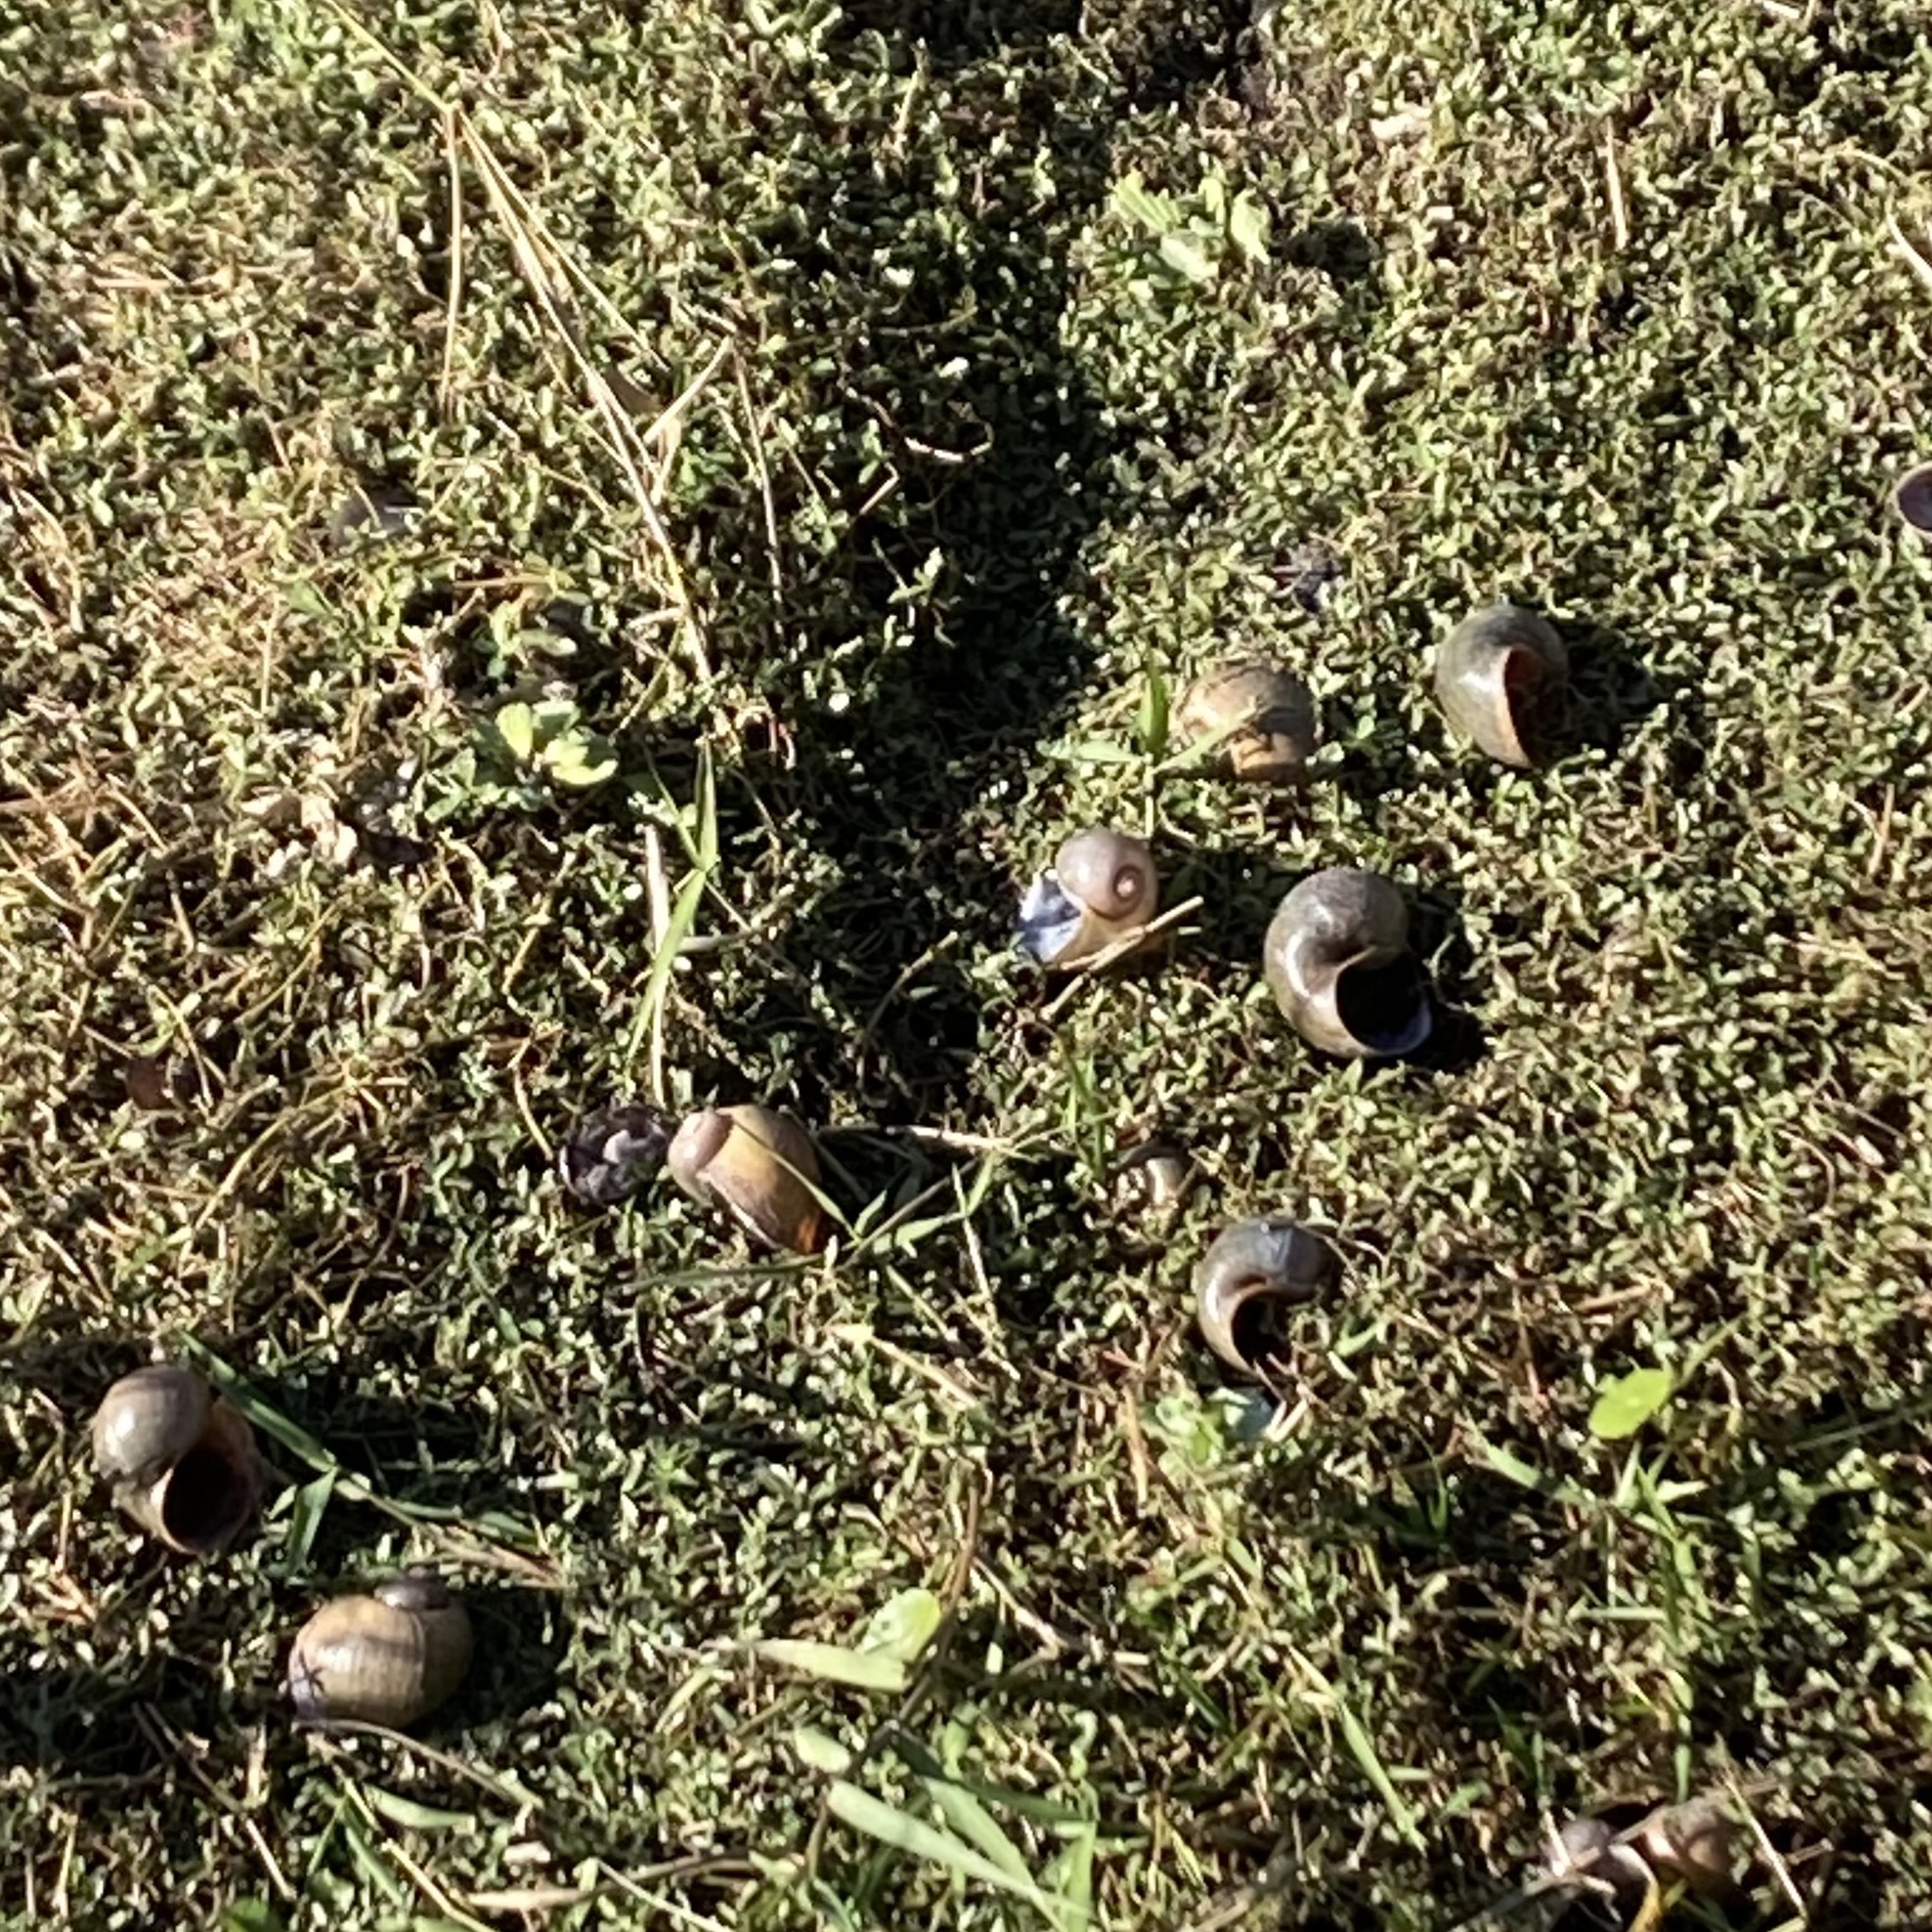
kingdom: Animalia
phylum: Mollusca
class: Gastropoda
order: Architaenioglossa
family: Ampullariidae
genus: Pomacea
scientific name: Pomacea maculata
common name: Giant applesnail
